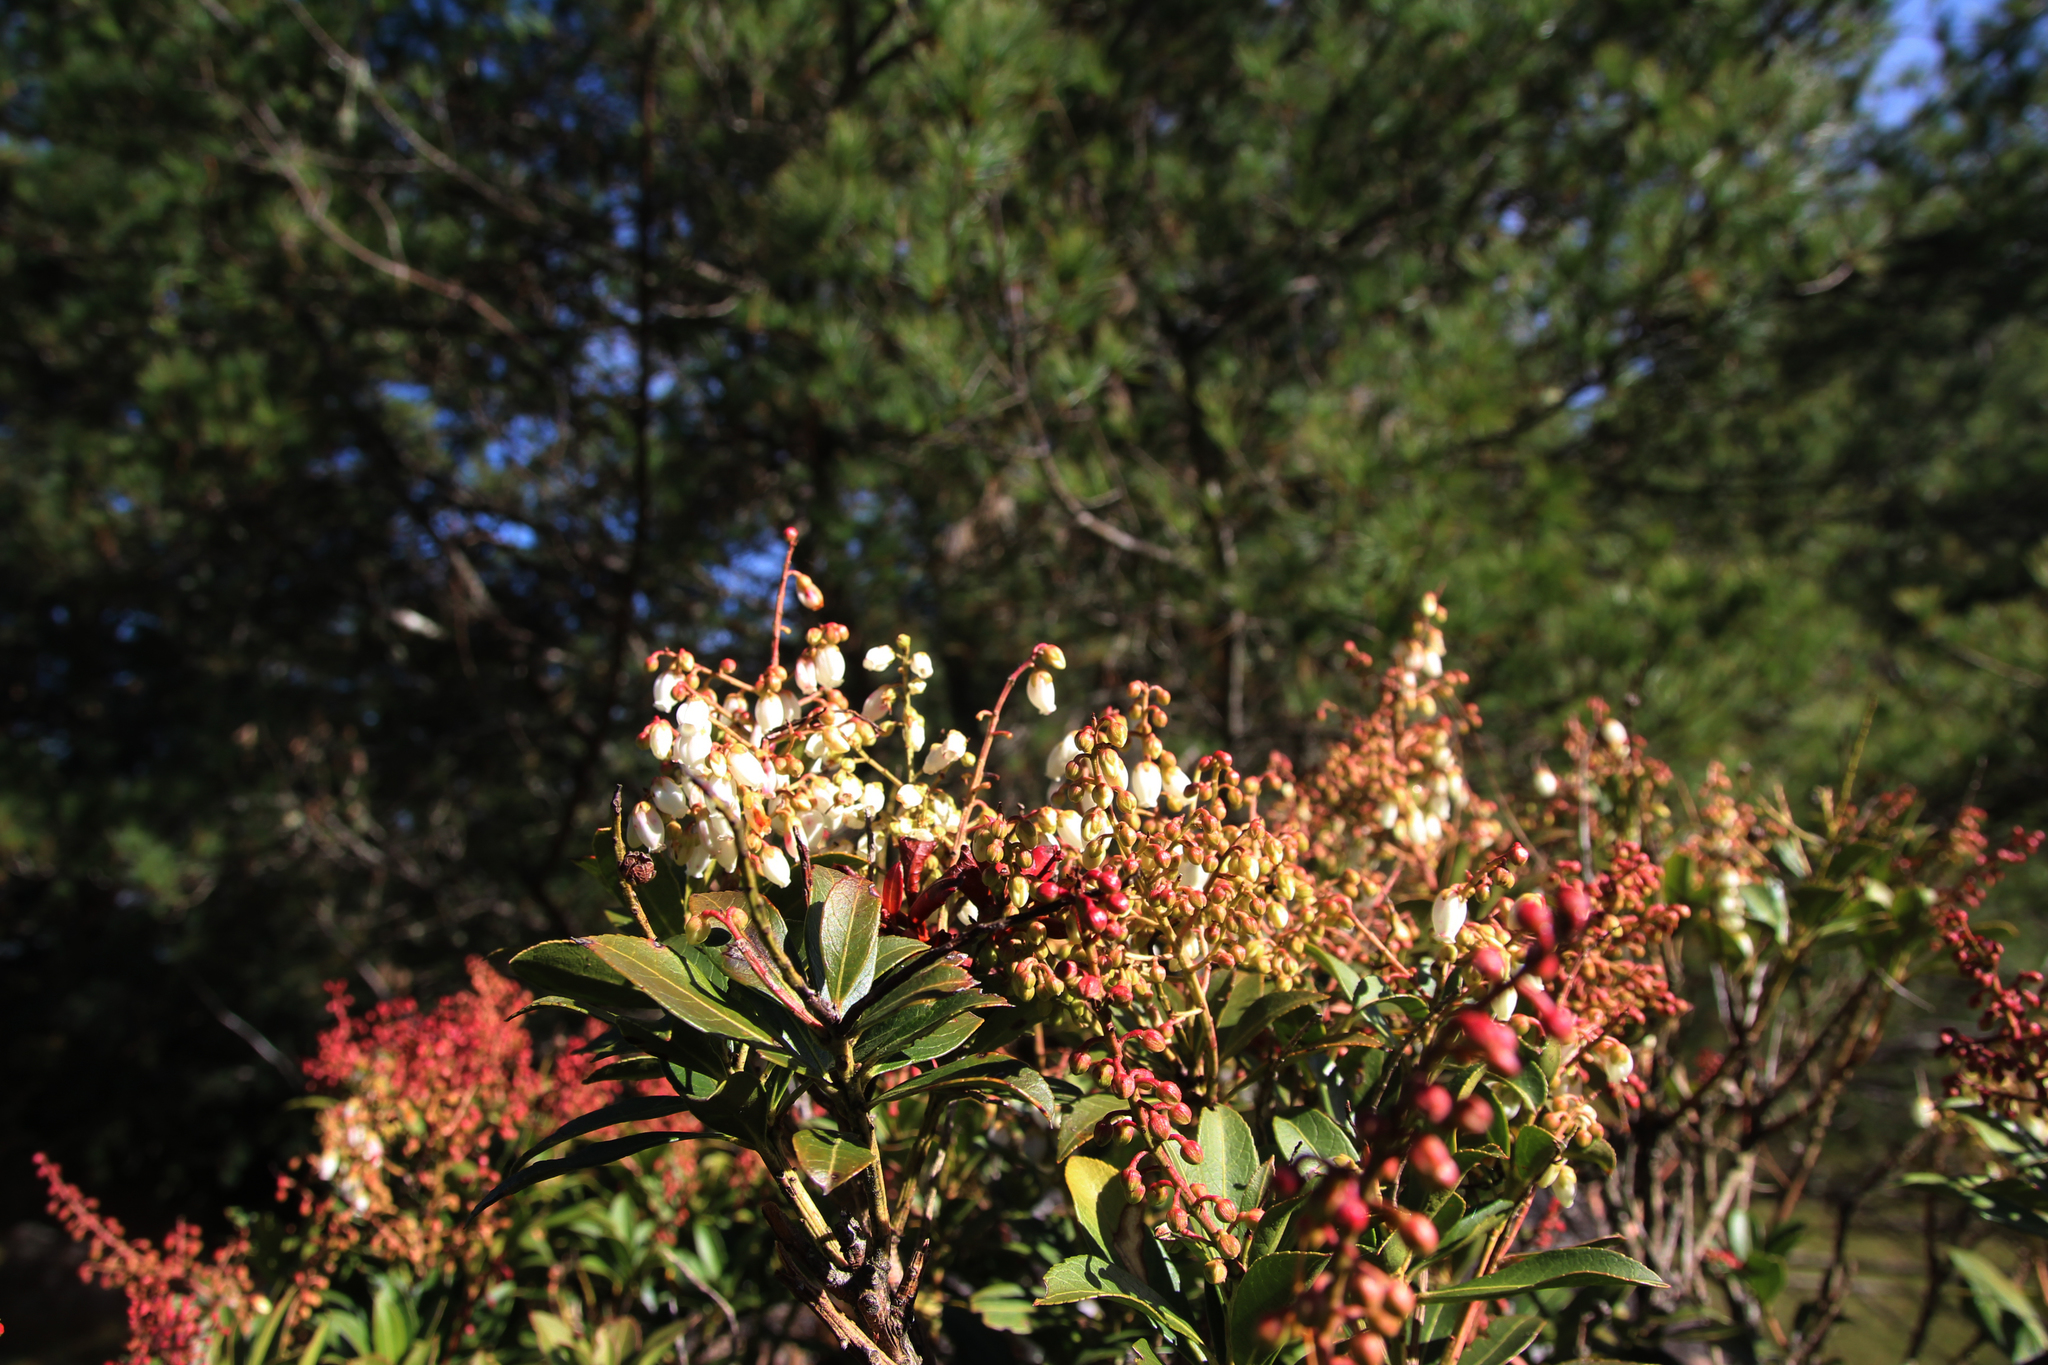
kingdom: Plantae
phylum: Tracheophyta
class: Magnoliopsida
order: Ericales
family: Ericaceae
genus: Pieris
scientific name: Pieris japonica
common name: Japanese pieris
